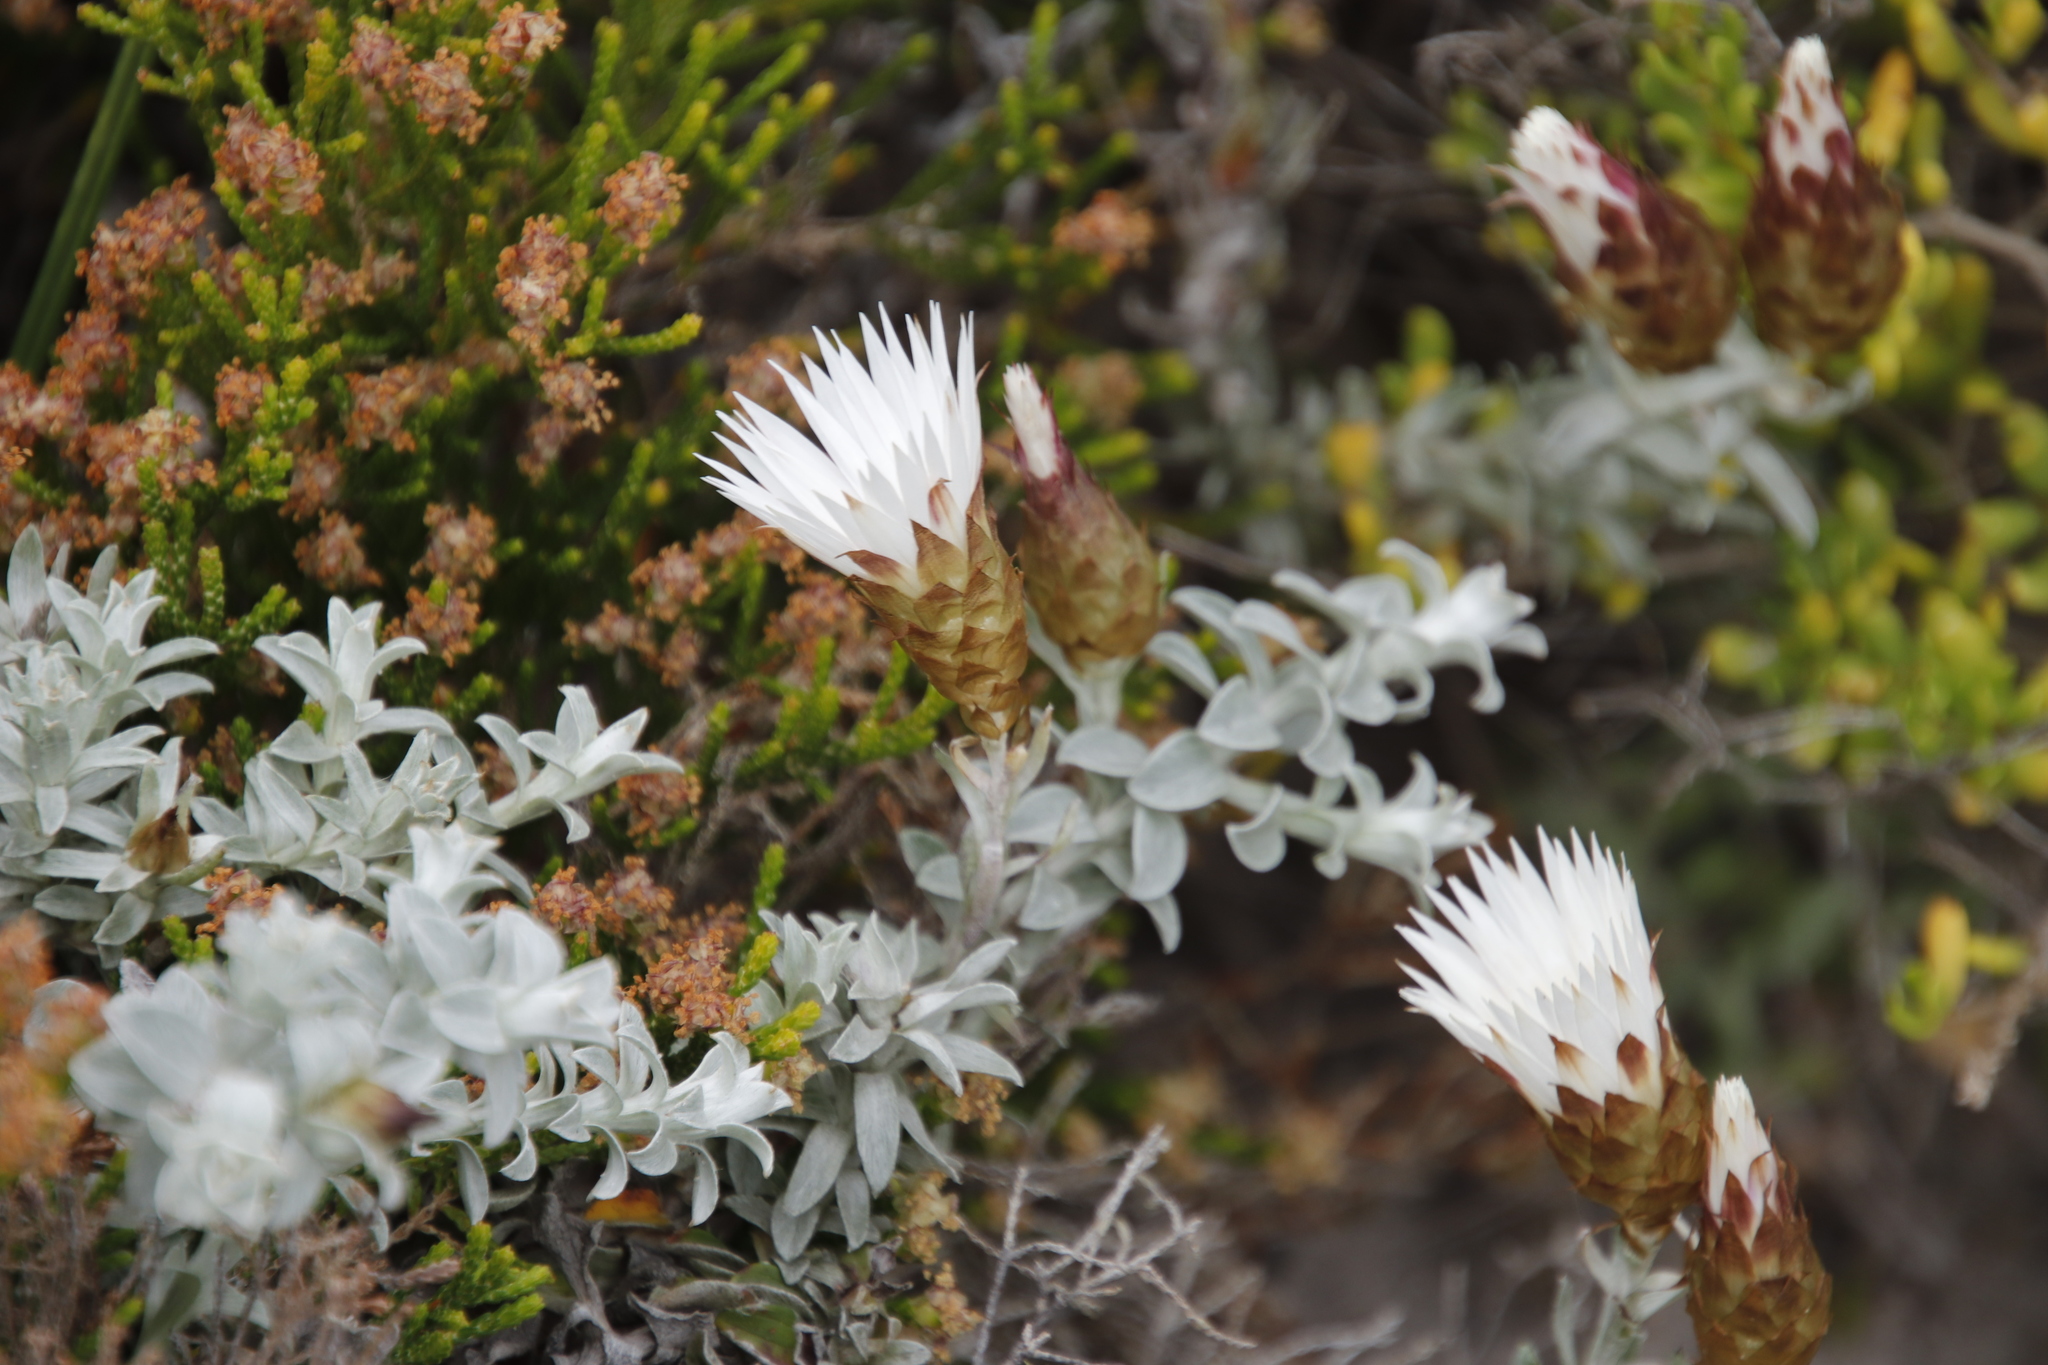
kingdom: Plantae
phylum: Tracheophyta
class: Magnoliopsida
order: Asterales
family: Asteraceae
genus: Helichrysum
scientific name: Helichrysum retortum
